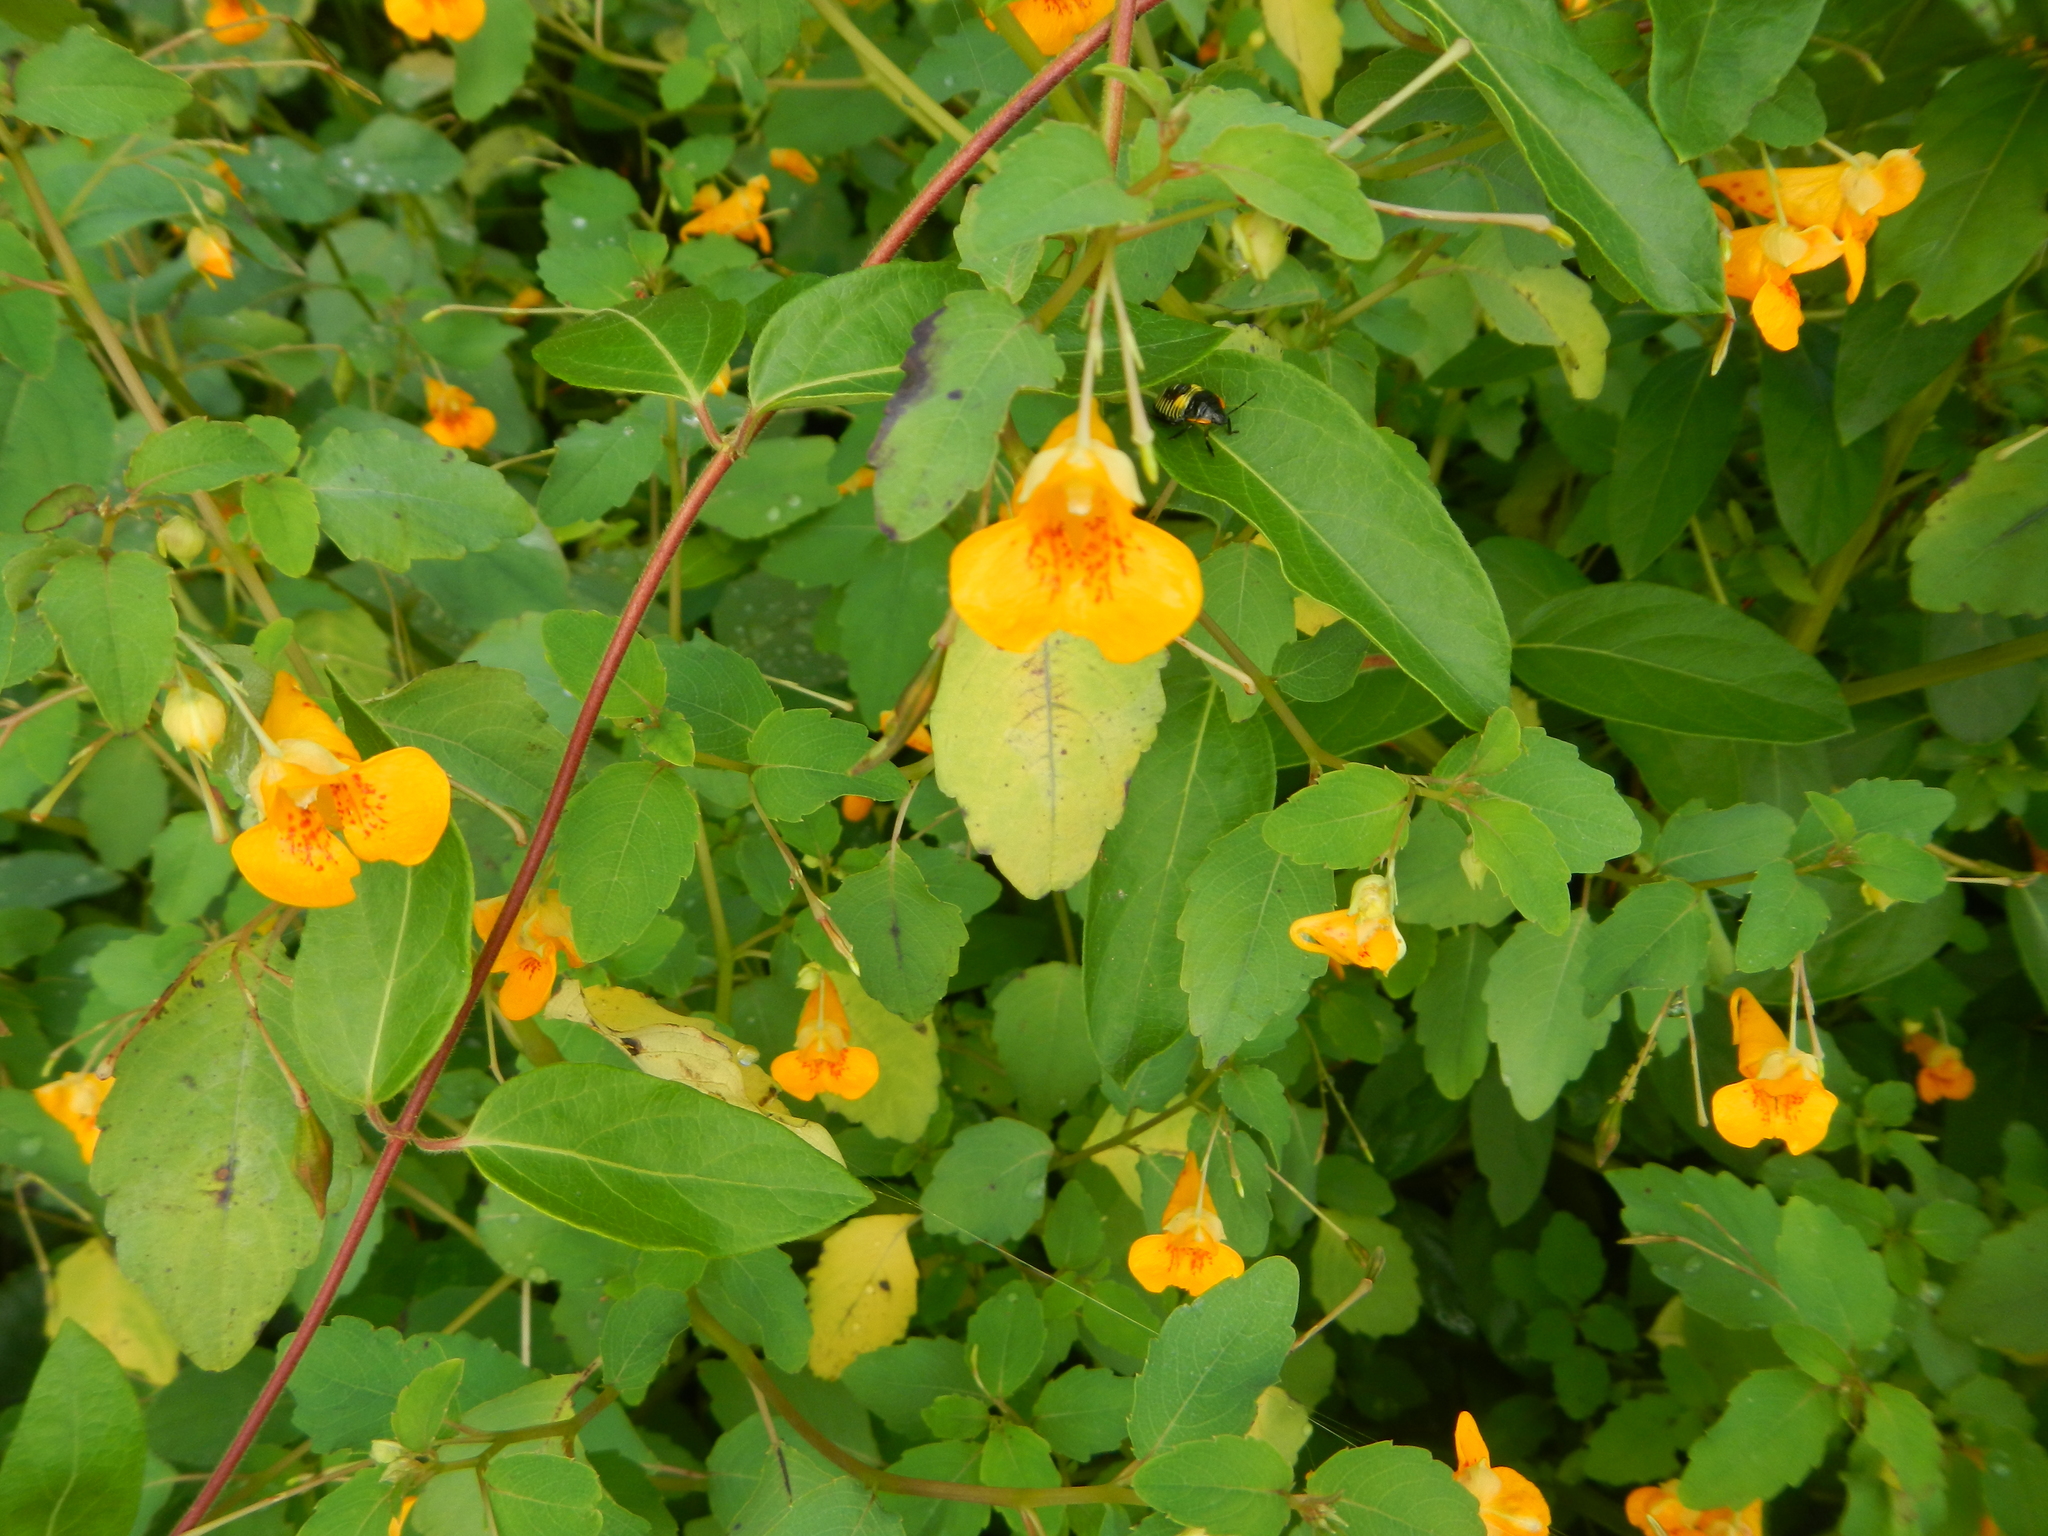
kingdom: Plantae
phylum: Tracheophyta
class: Magnoliopsida
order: Ericales
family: Balsaminaceae
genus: Impatiens
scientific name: Impatiens capensis
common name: Orange balsam
